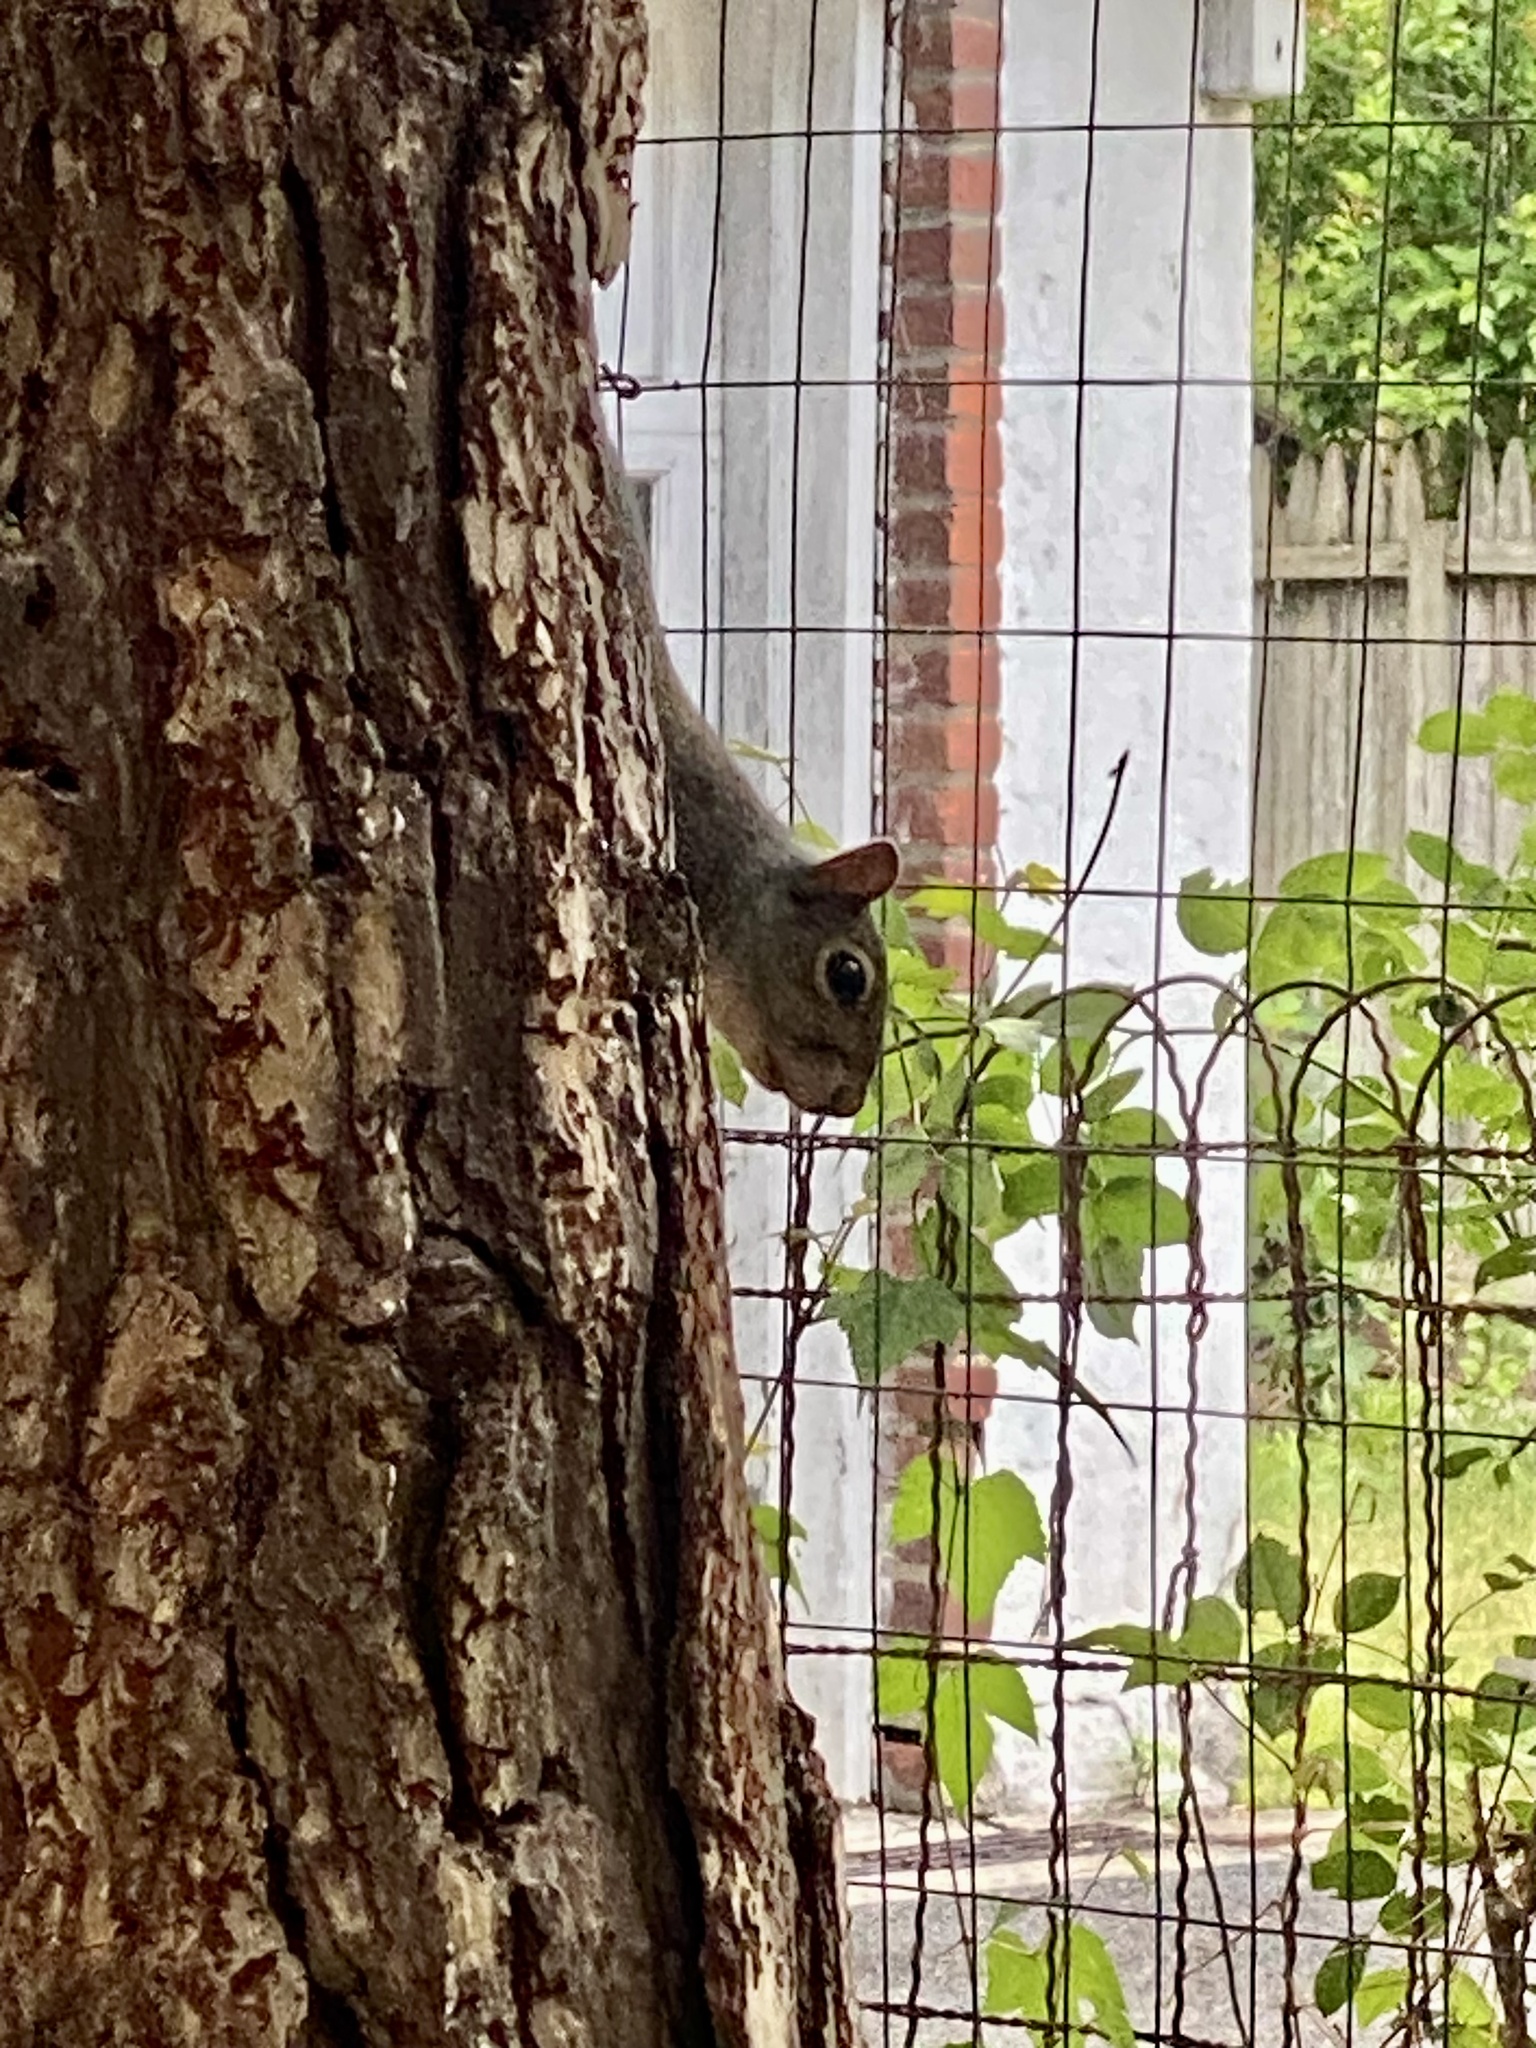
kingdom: Animalia
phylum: Chordata
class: Mammalia
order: Rodentia
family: Sciuridae
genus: Sciurus
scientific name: Sciurus carolinensis
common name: Eastern gray squirrel
